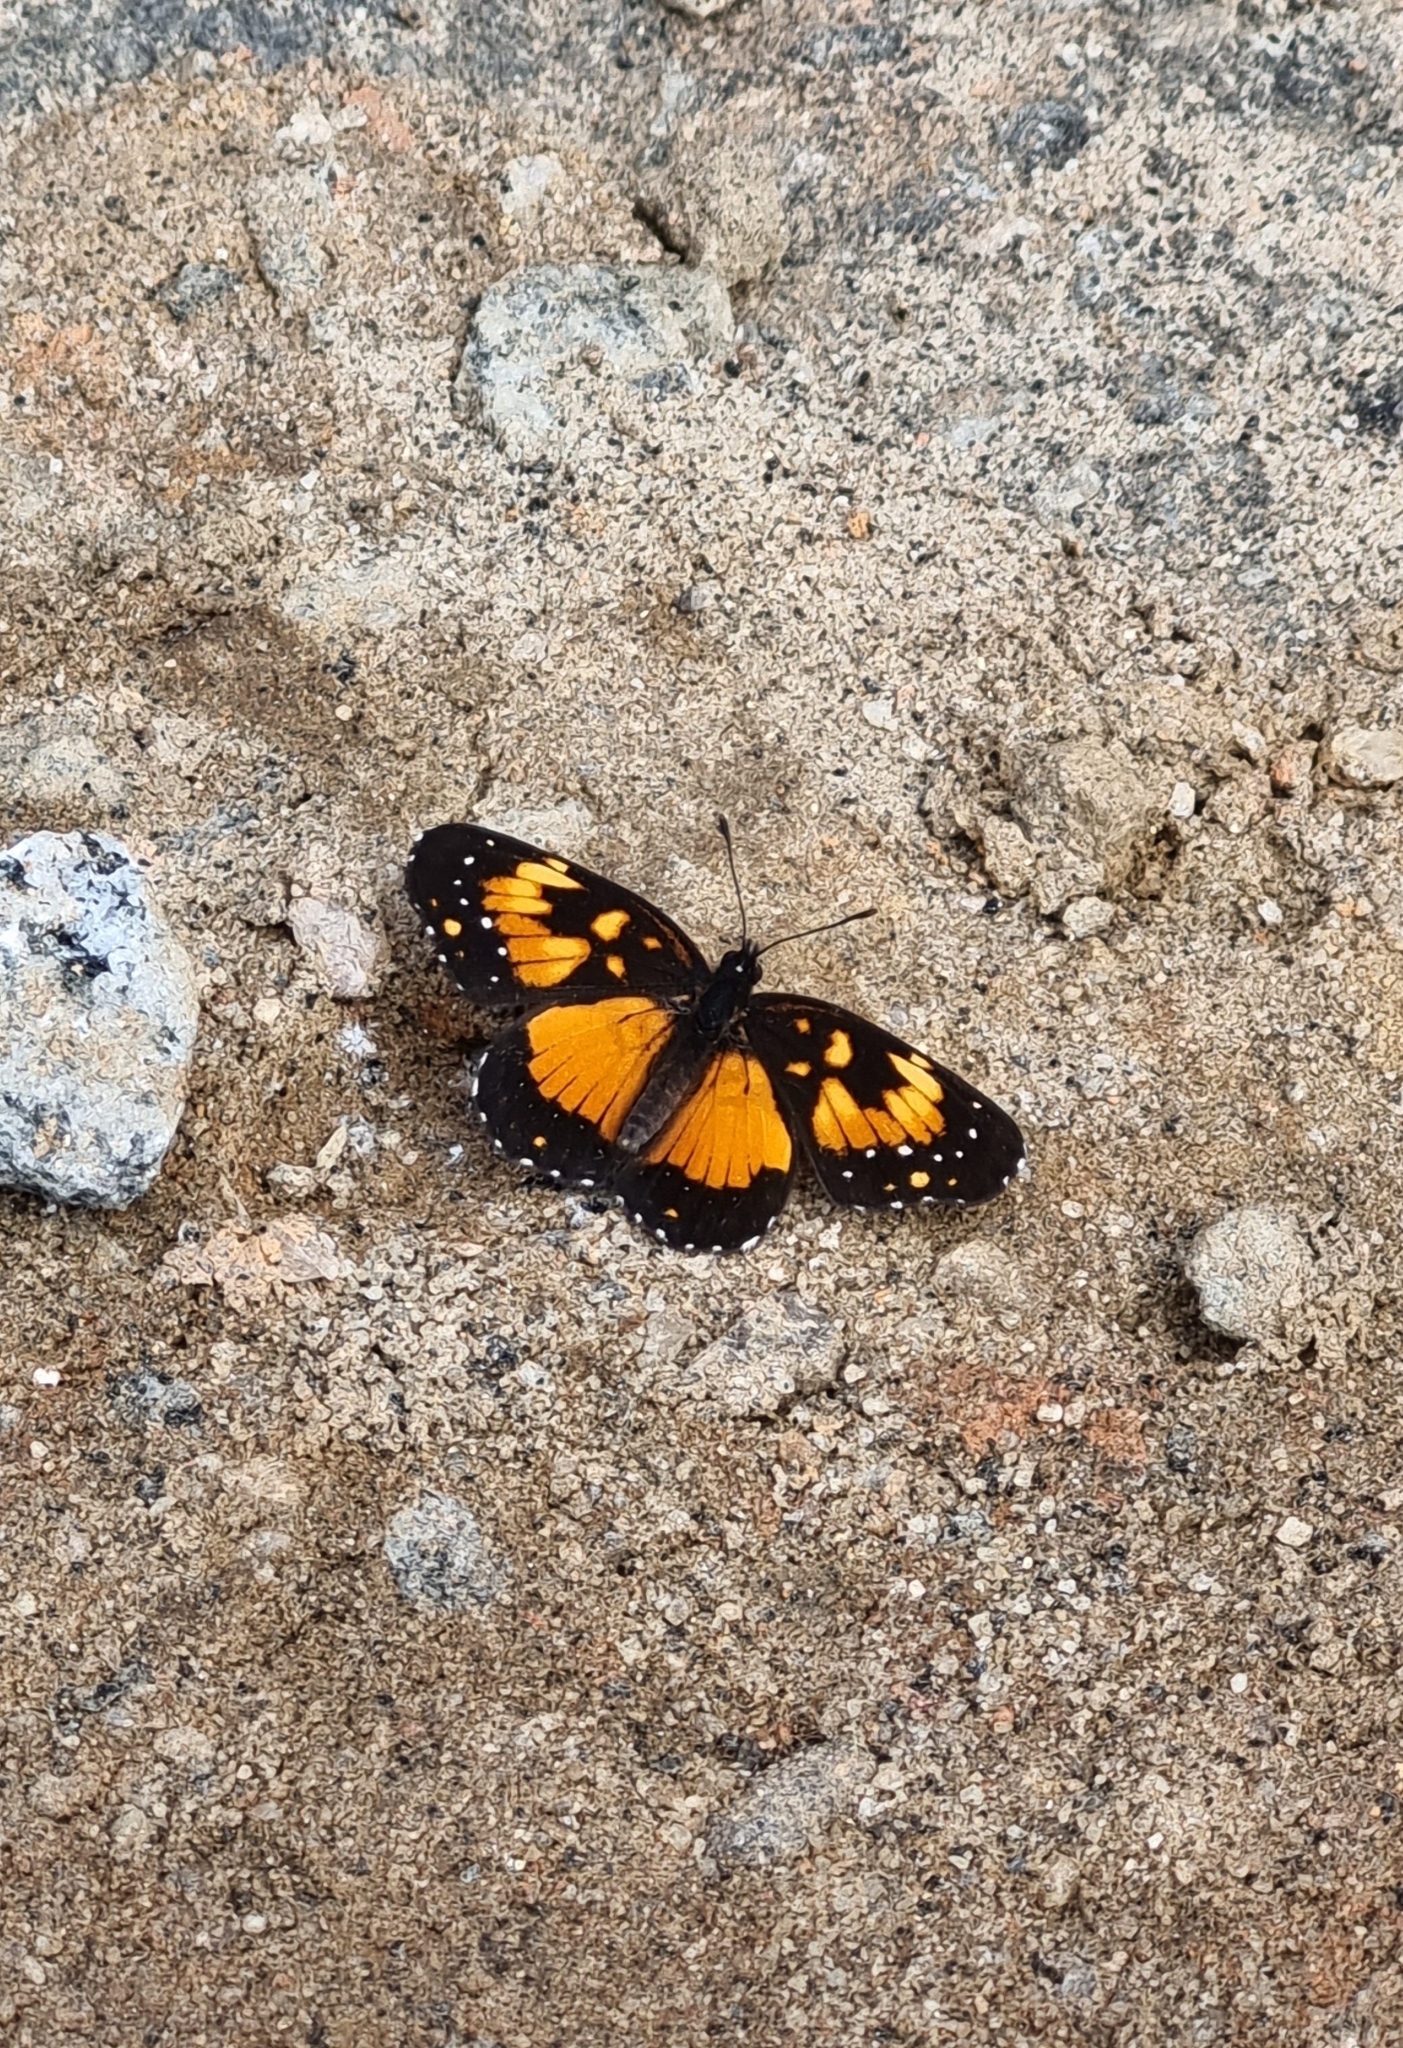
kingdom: Animalia
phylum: Arthropoda
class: Insecta
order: Lepidoptera
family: Nymphalidae
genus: Chlosyne
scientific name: Chlosyne lacinia
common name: Bordered patch
